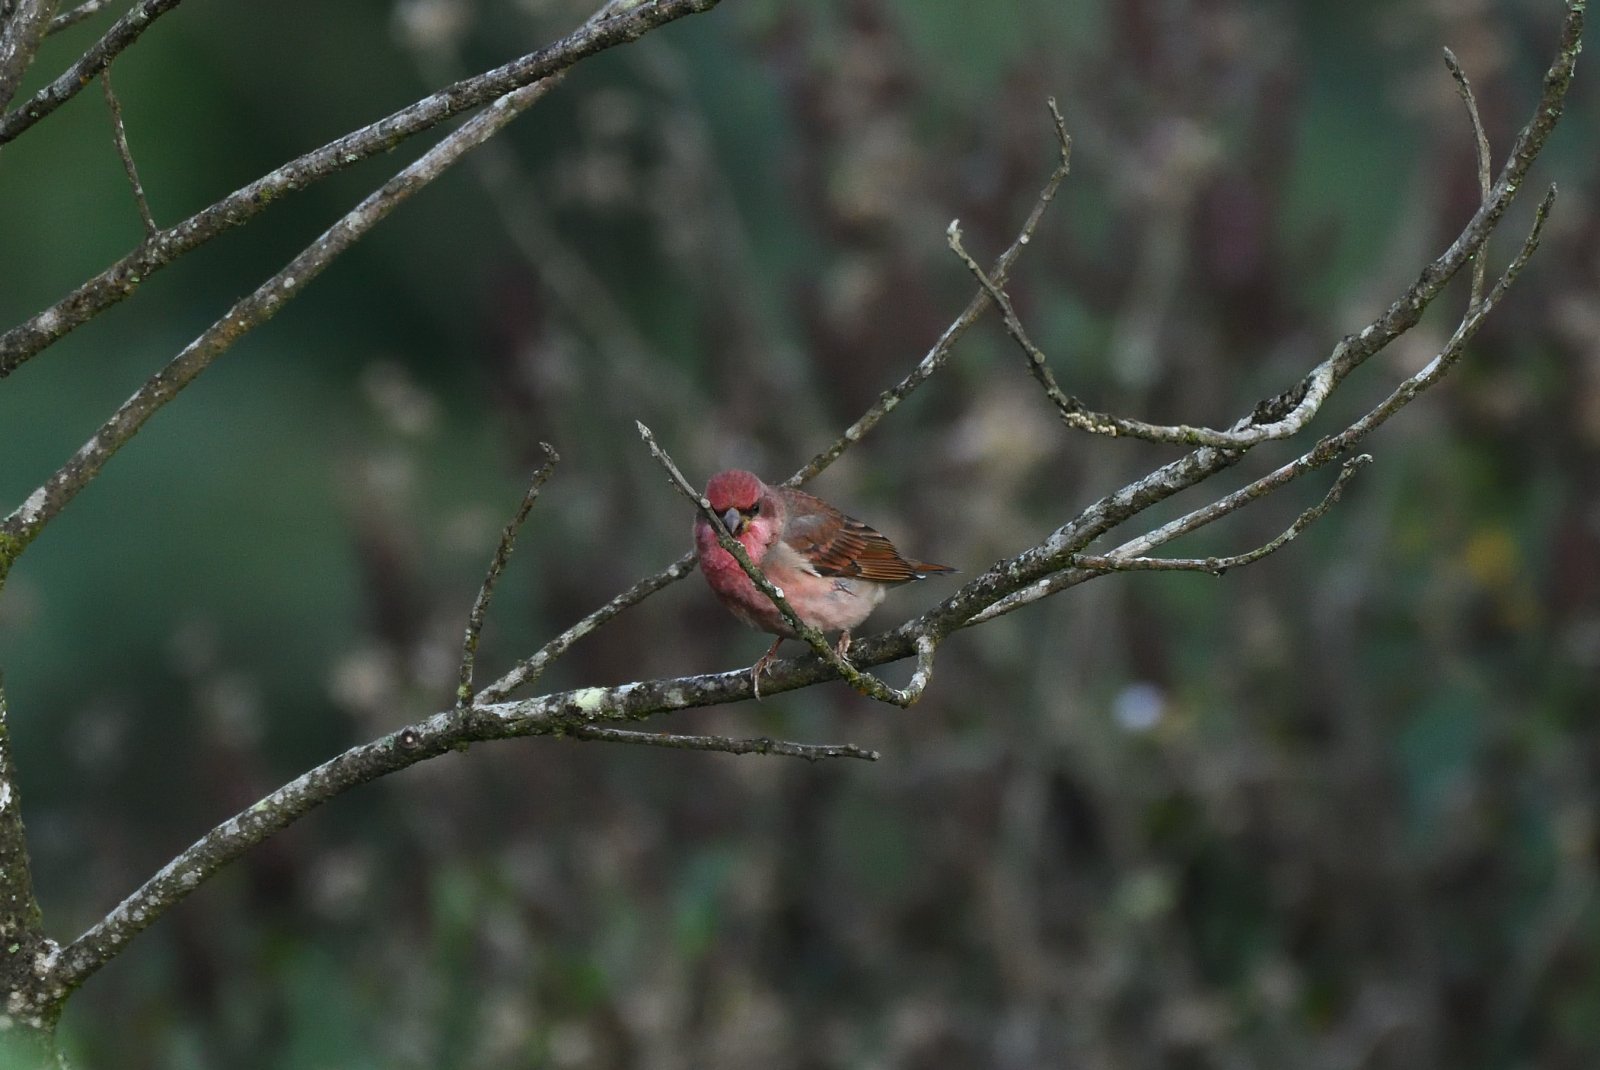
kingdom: Animalia
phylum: Chordata
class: Aves
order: Passeriformes
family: Fringillidae
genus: Carpodacus
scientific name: Carpodacus erythrinus
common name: Common rosefinch
